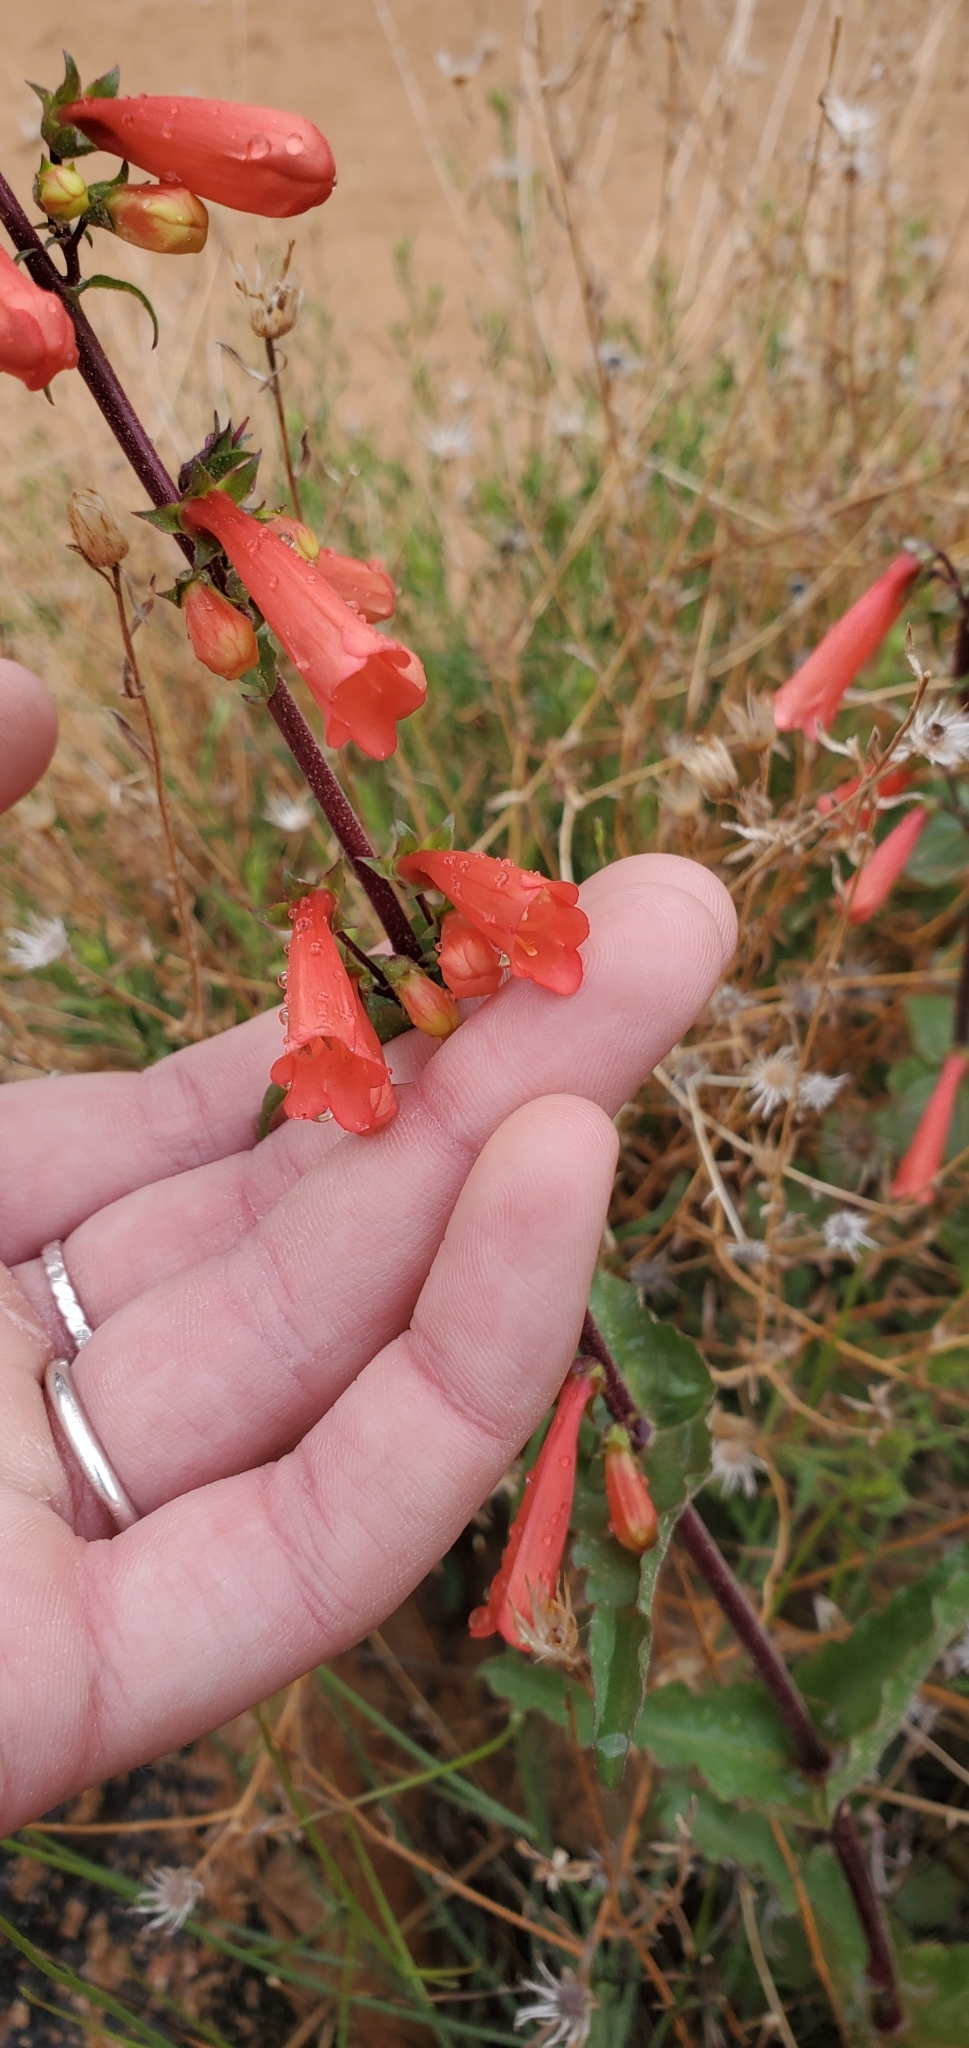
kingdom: Plantae
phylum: Tracheophyta
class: Magnoliopsida
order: Lamiales
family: Plantaginaceae
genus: Penstemon
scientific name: Penstemon eatonii
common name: Eaton's penstemon
